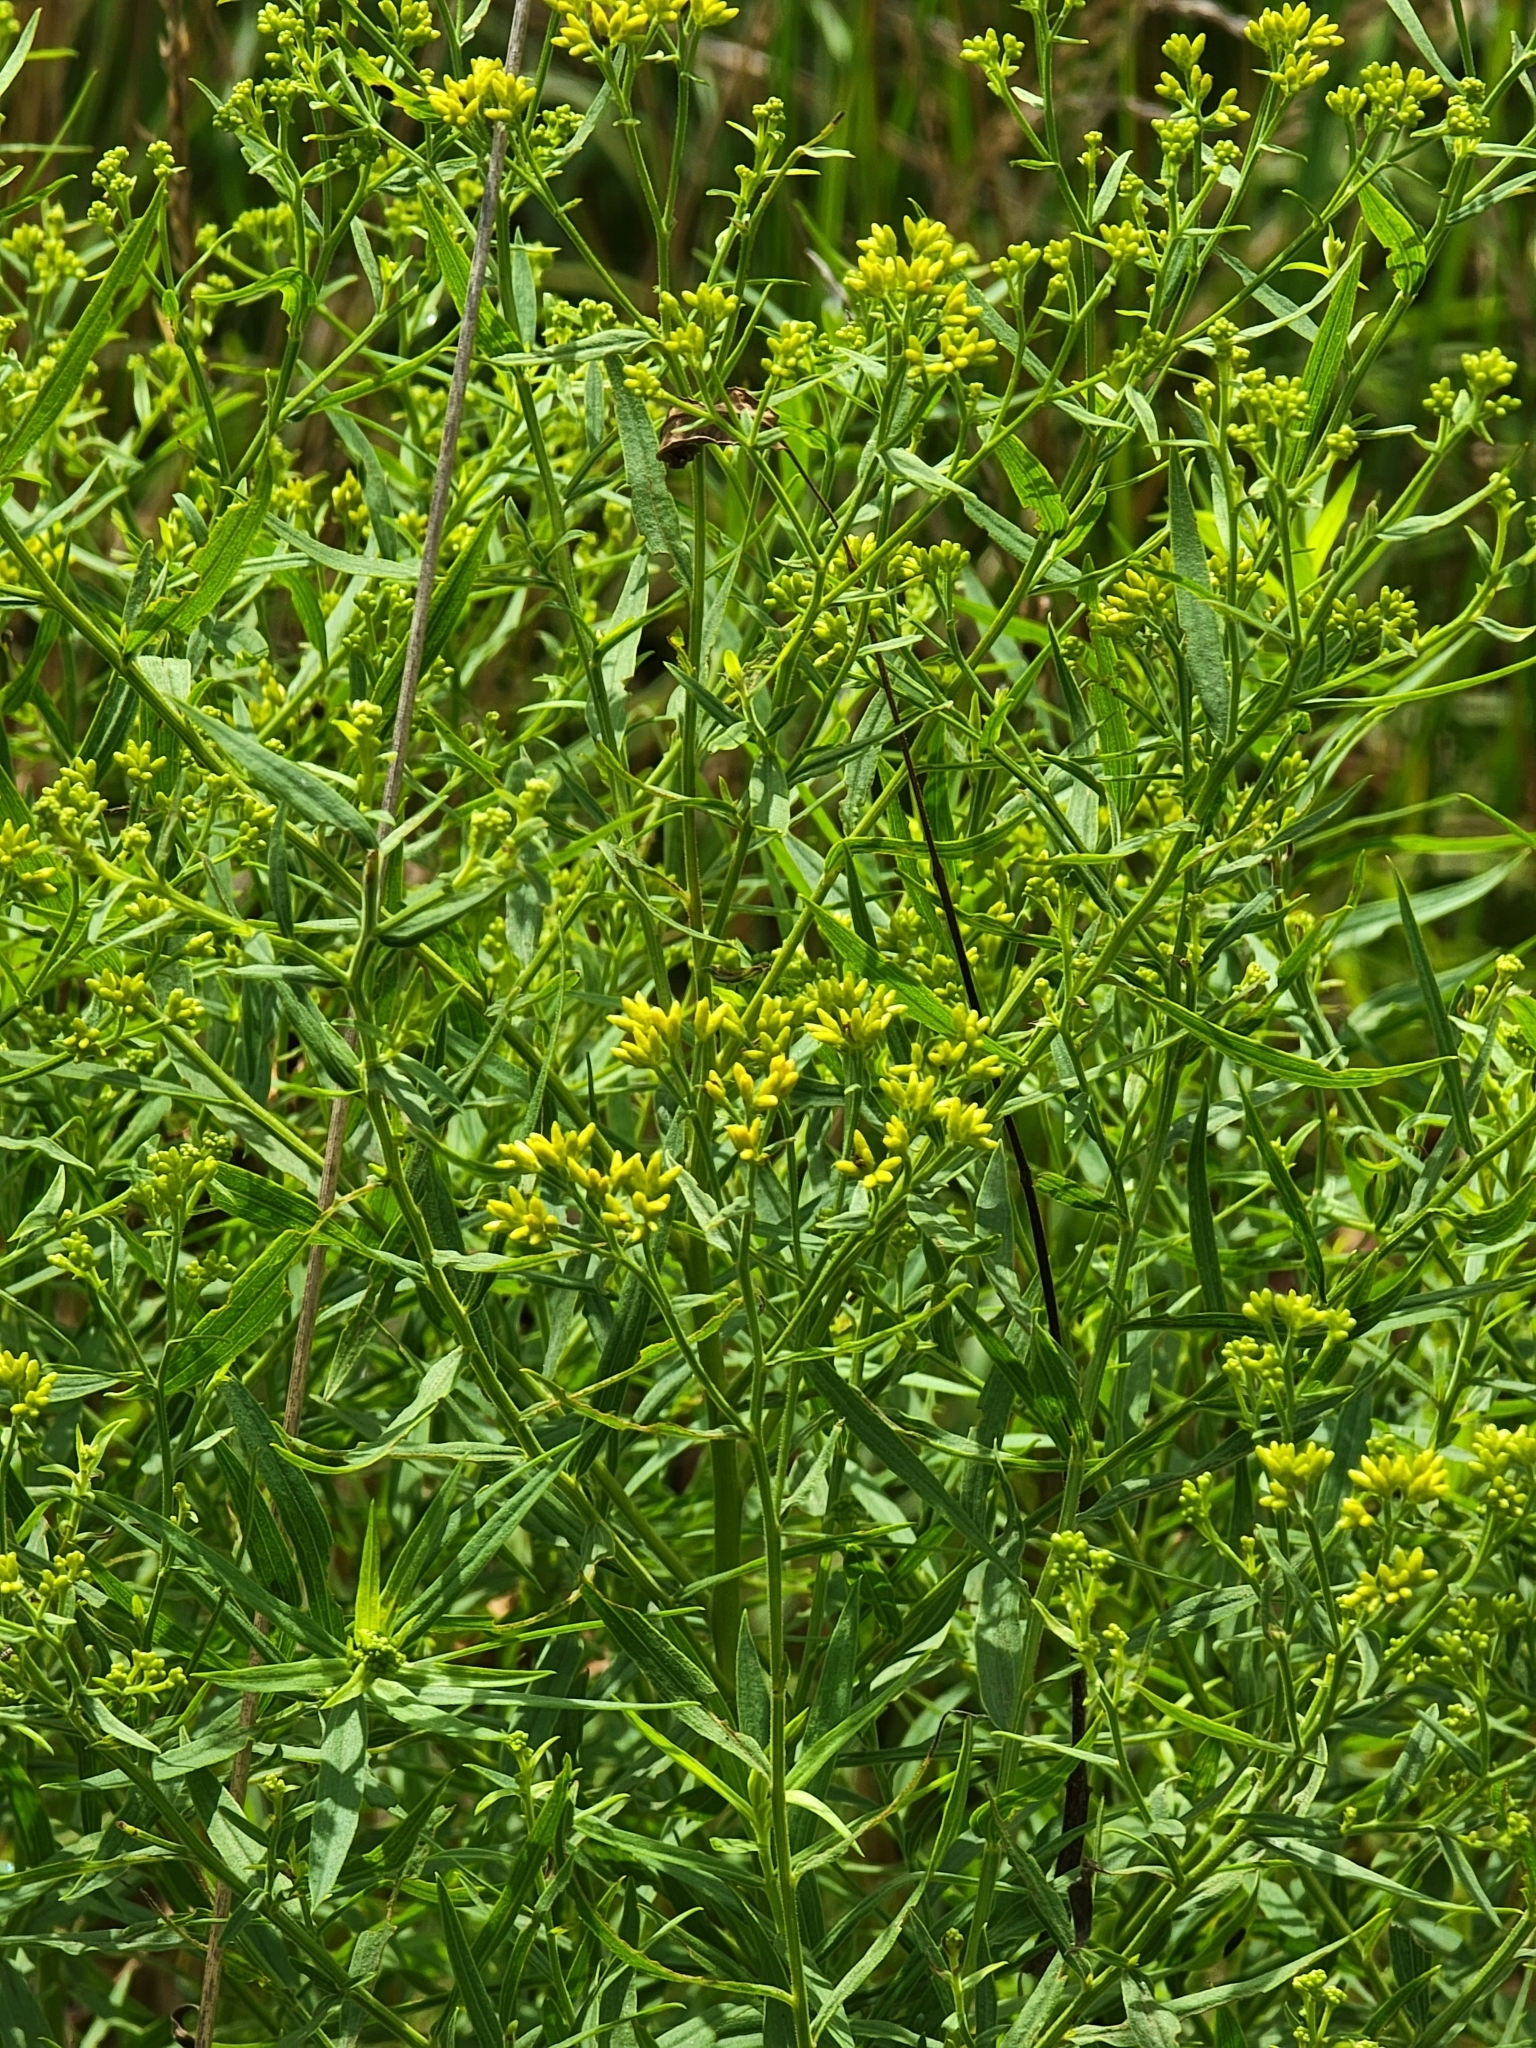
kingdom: Plantae
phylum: Tracheophyta
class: Magnoliopsida
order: Asterales
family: Asteraceae
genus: Euthamia
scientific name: Euthamia graminifolia
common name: Common goldentop
